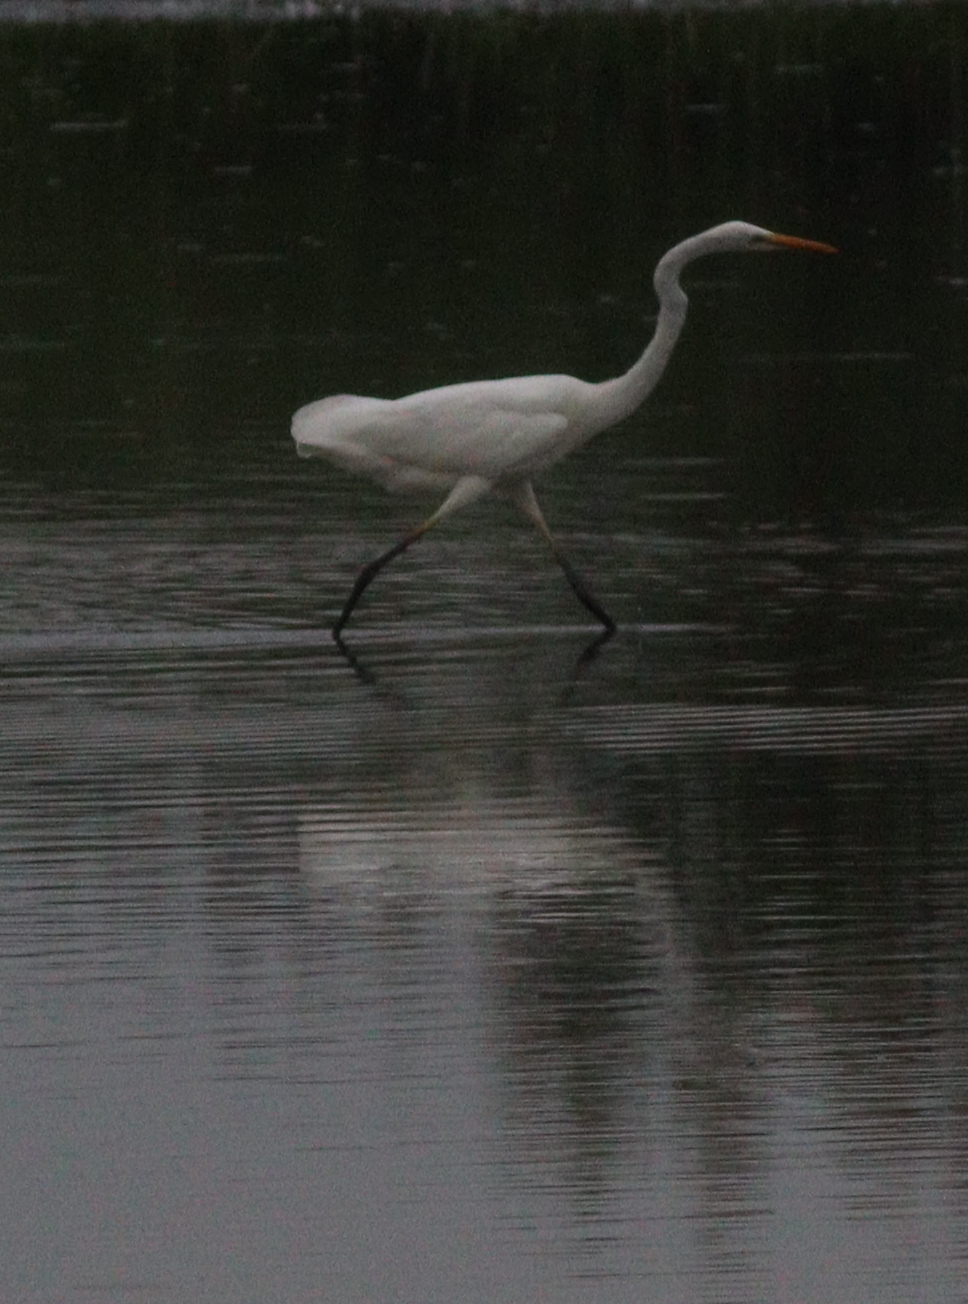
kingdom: Animalia
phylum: Chordata
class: Aves
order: Pelecaniformes
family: Ardeidae
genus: Ardea
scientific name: Ardea alba
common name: Great egret
